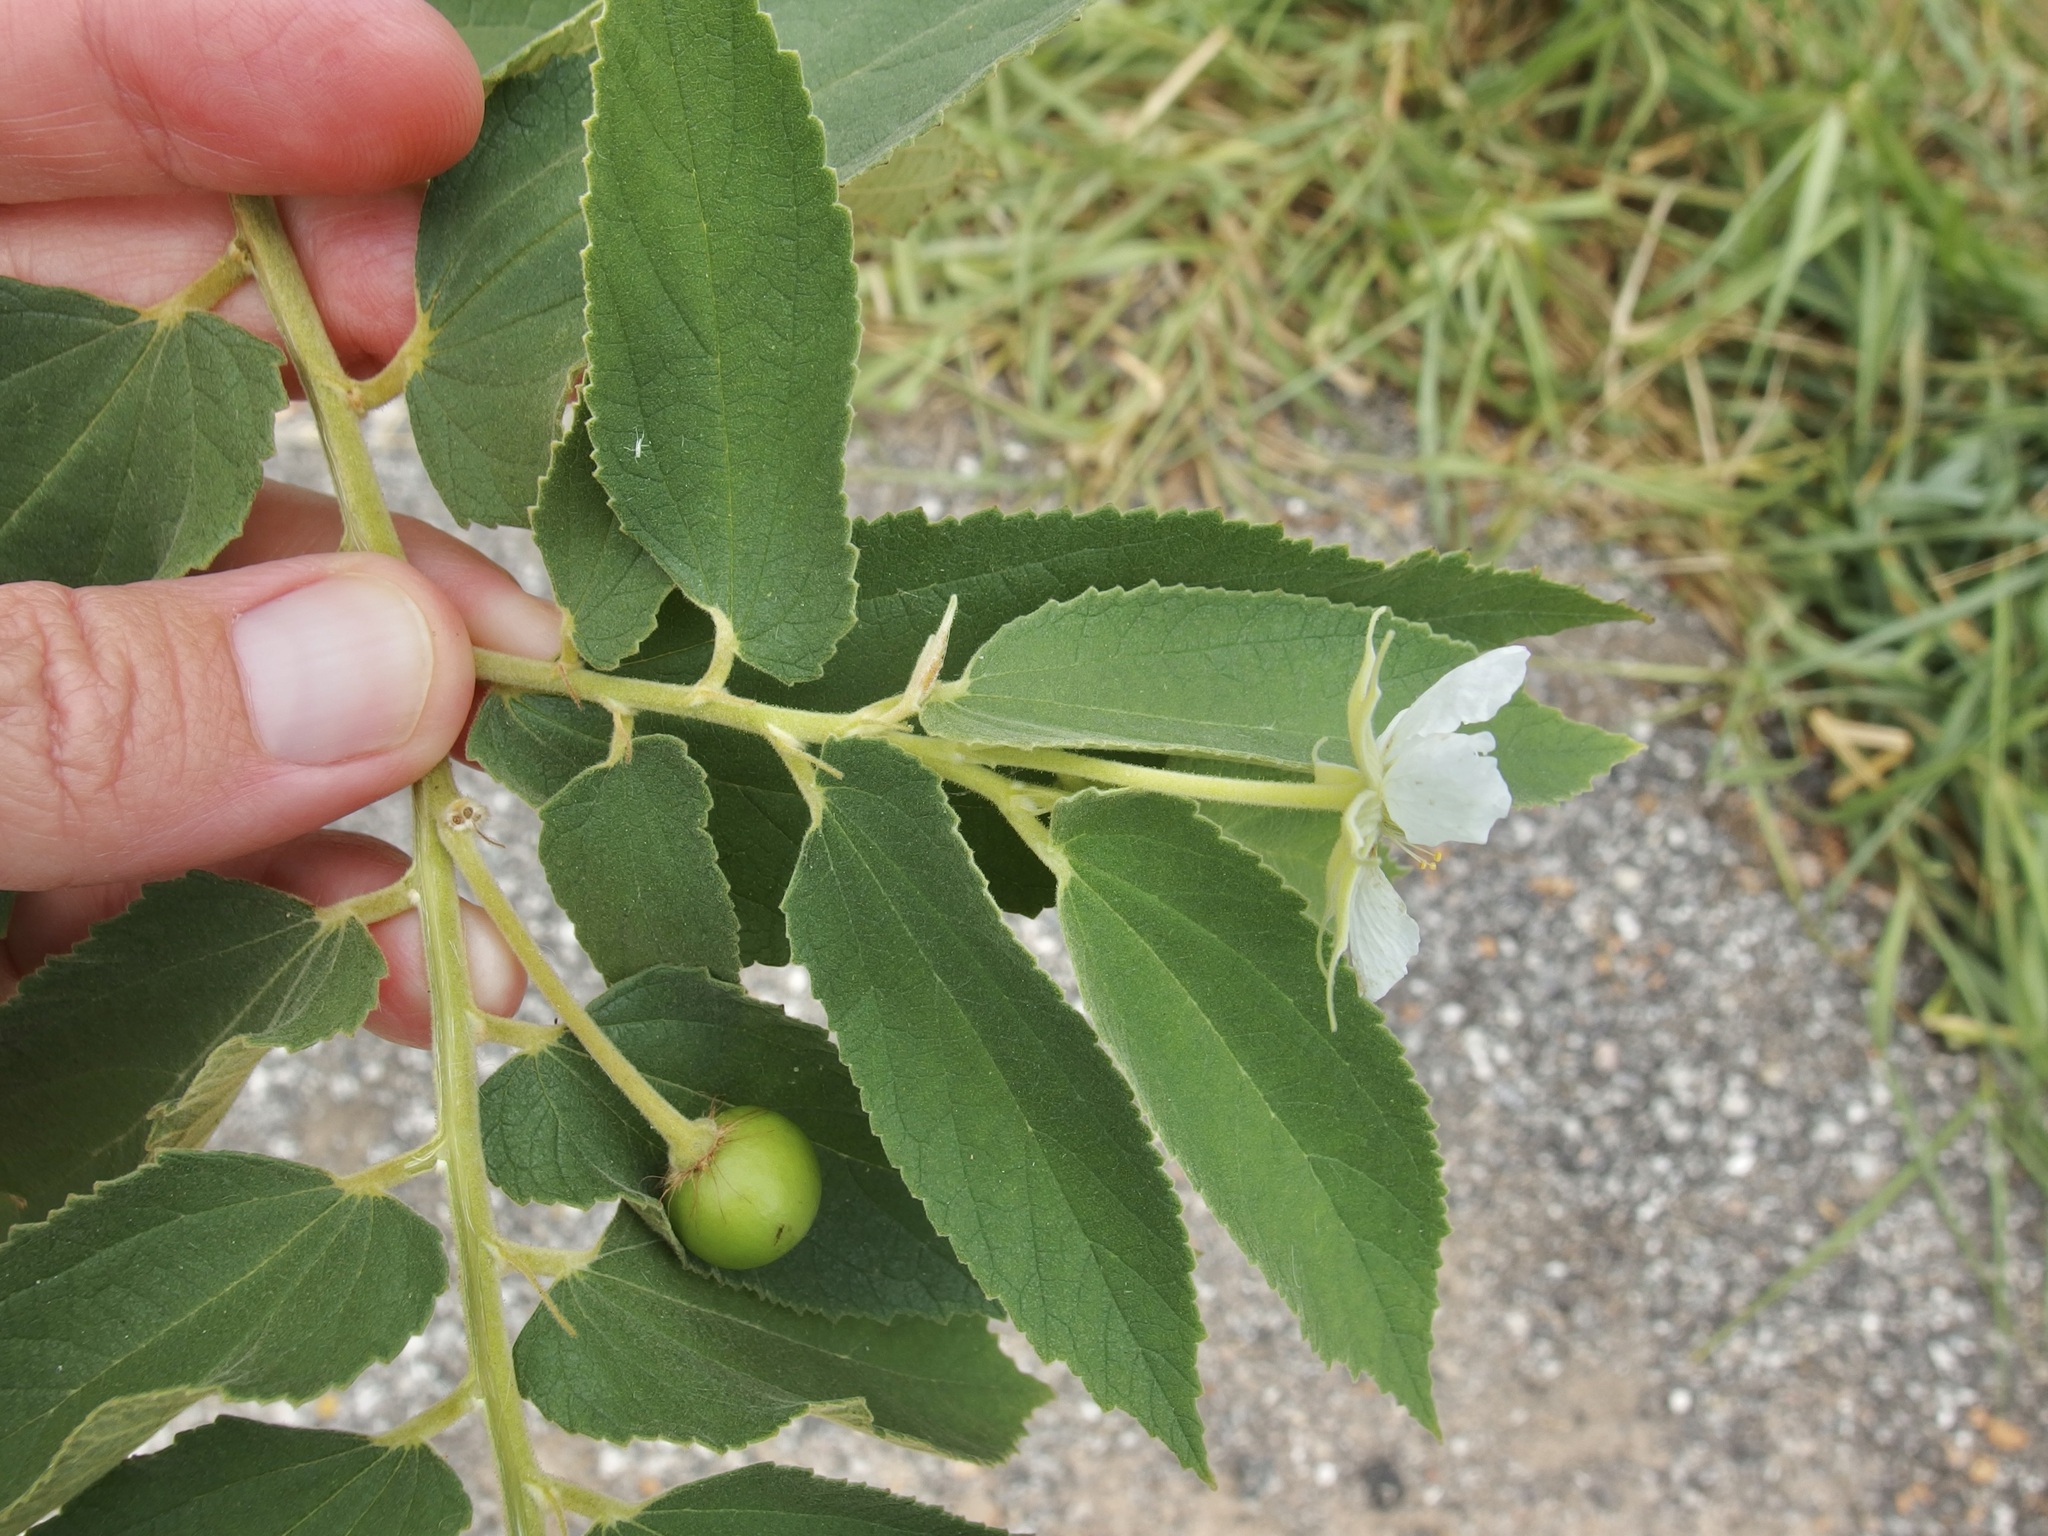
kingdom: Plantae
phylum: Tracheophyta
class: Magnoliopsida
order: Malvales
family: Muntingiaceae
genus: Muntingia
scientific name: Muntingia calabura
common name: Strawberrytree
